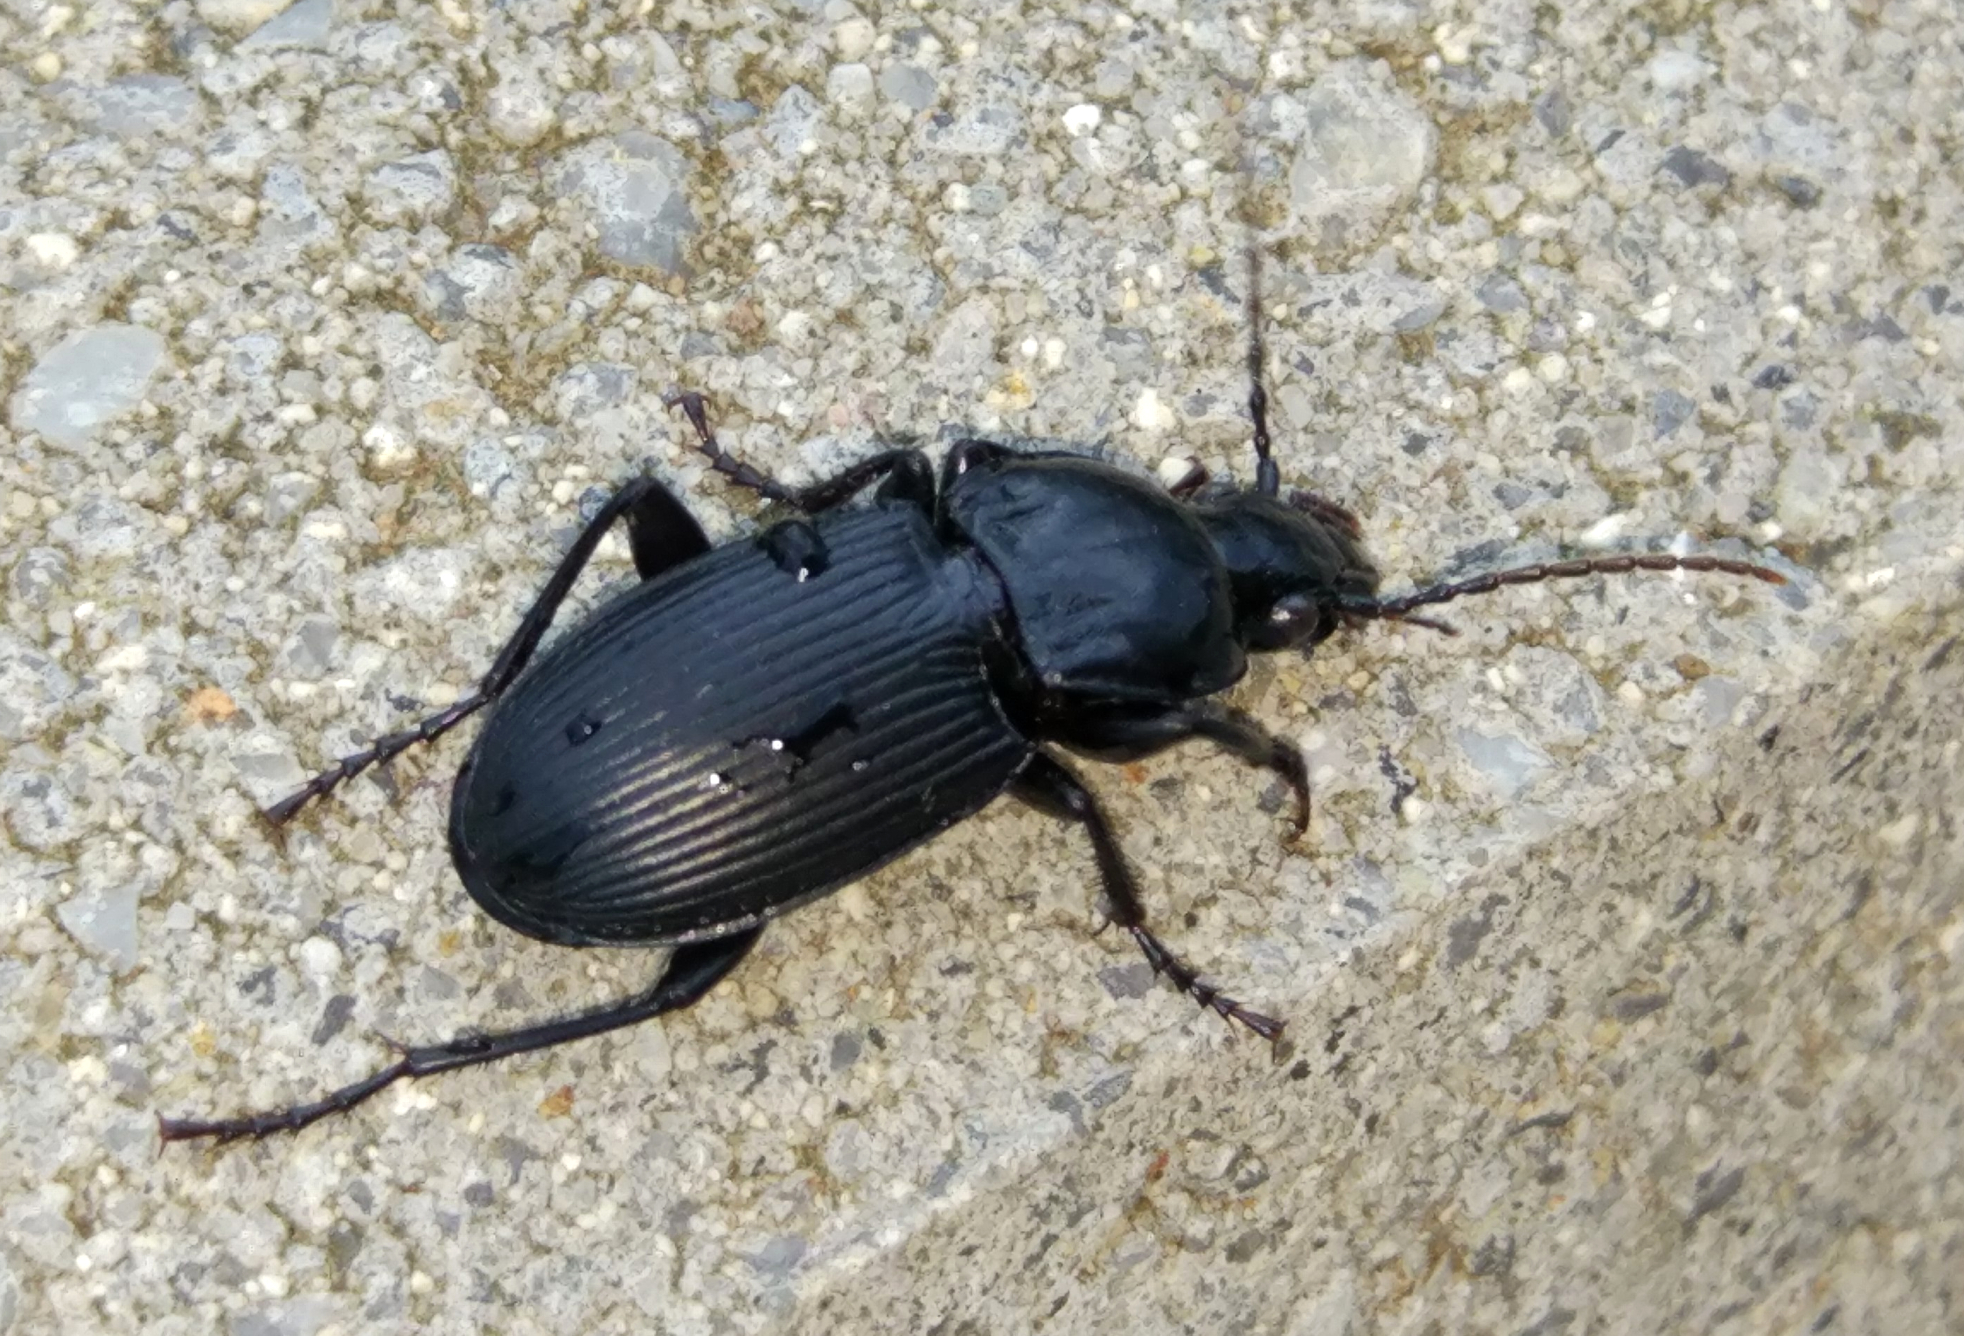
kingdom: Animalia
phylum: Arthropoda
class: Insecta
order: Coleoptera
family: Carabidae
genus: Pterostichus
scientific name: Pterostichus melas
